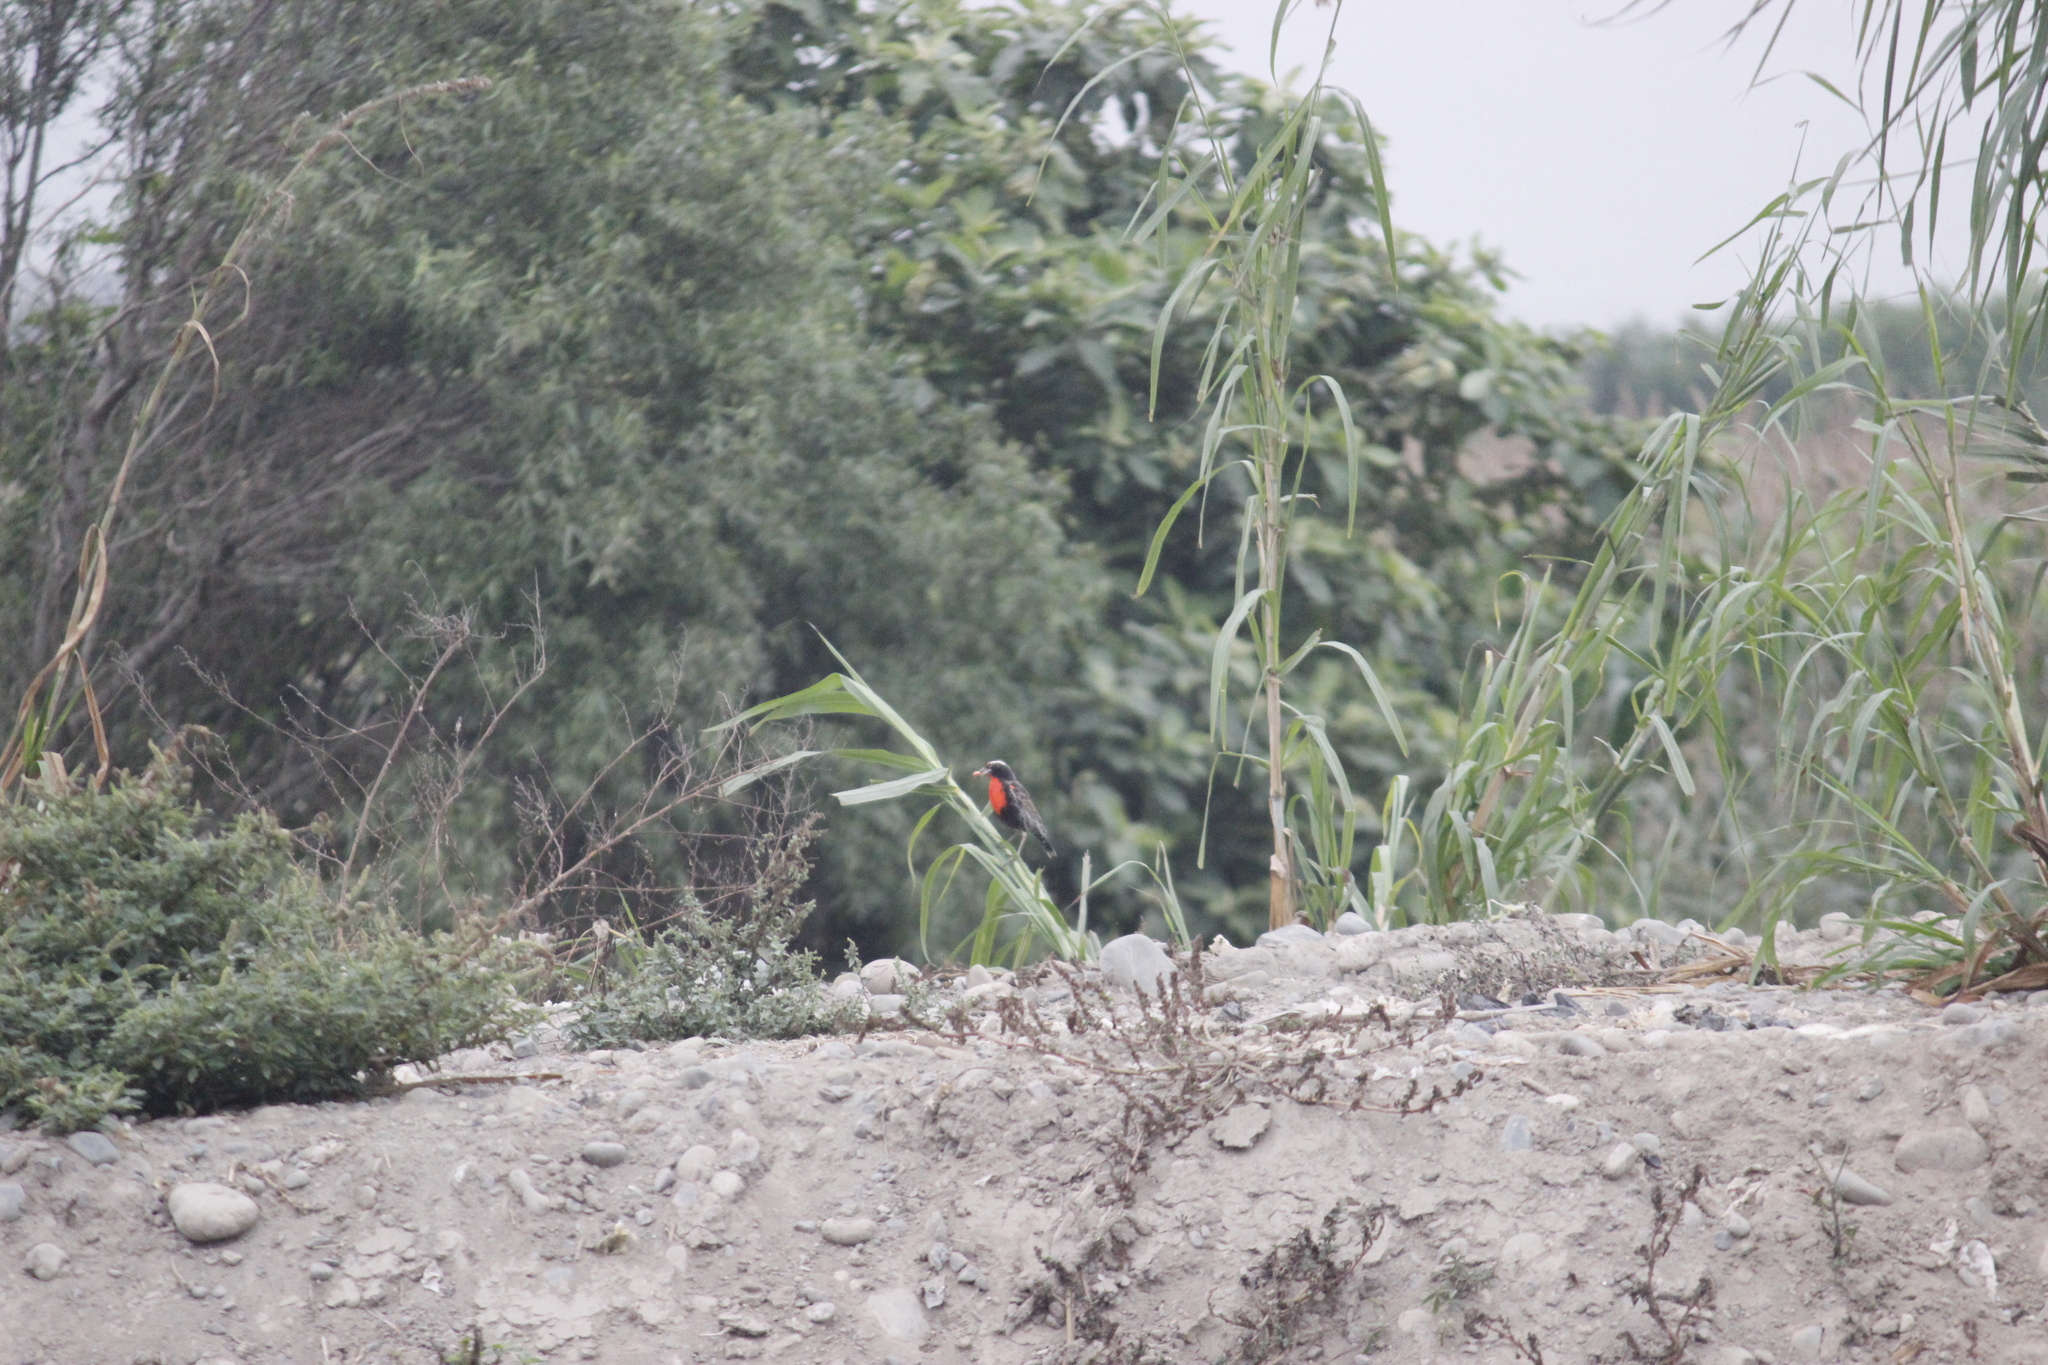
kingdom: Animalia
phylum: Chordata
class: Aves
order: Passeriformes
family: Icteridae
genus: Sturnella
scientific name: Sturnella bellicosa
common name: Peruvian meadowlark
